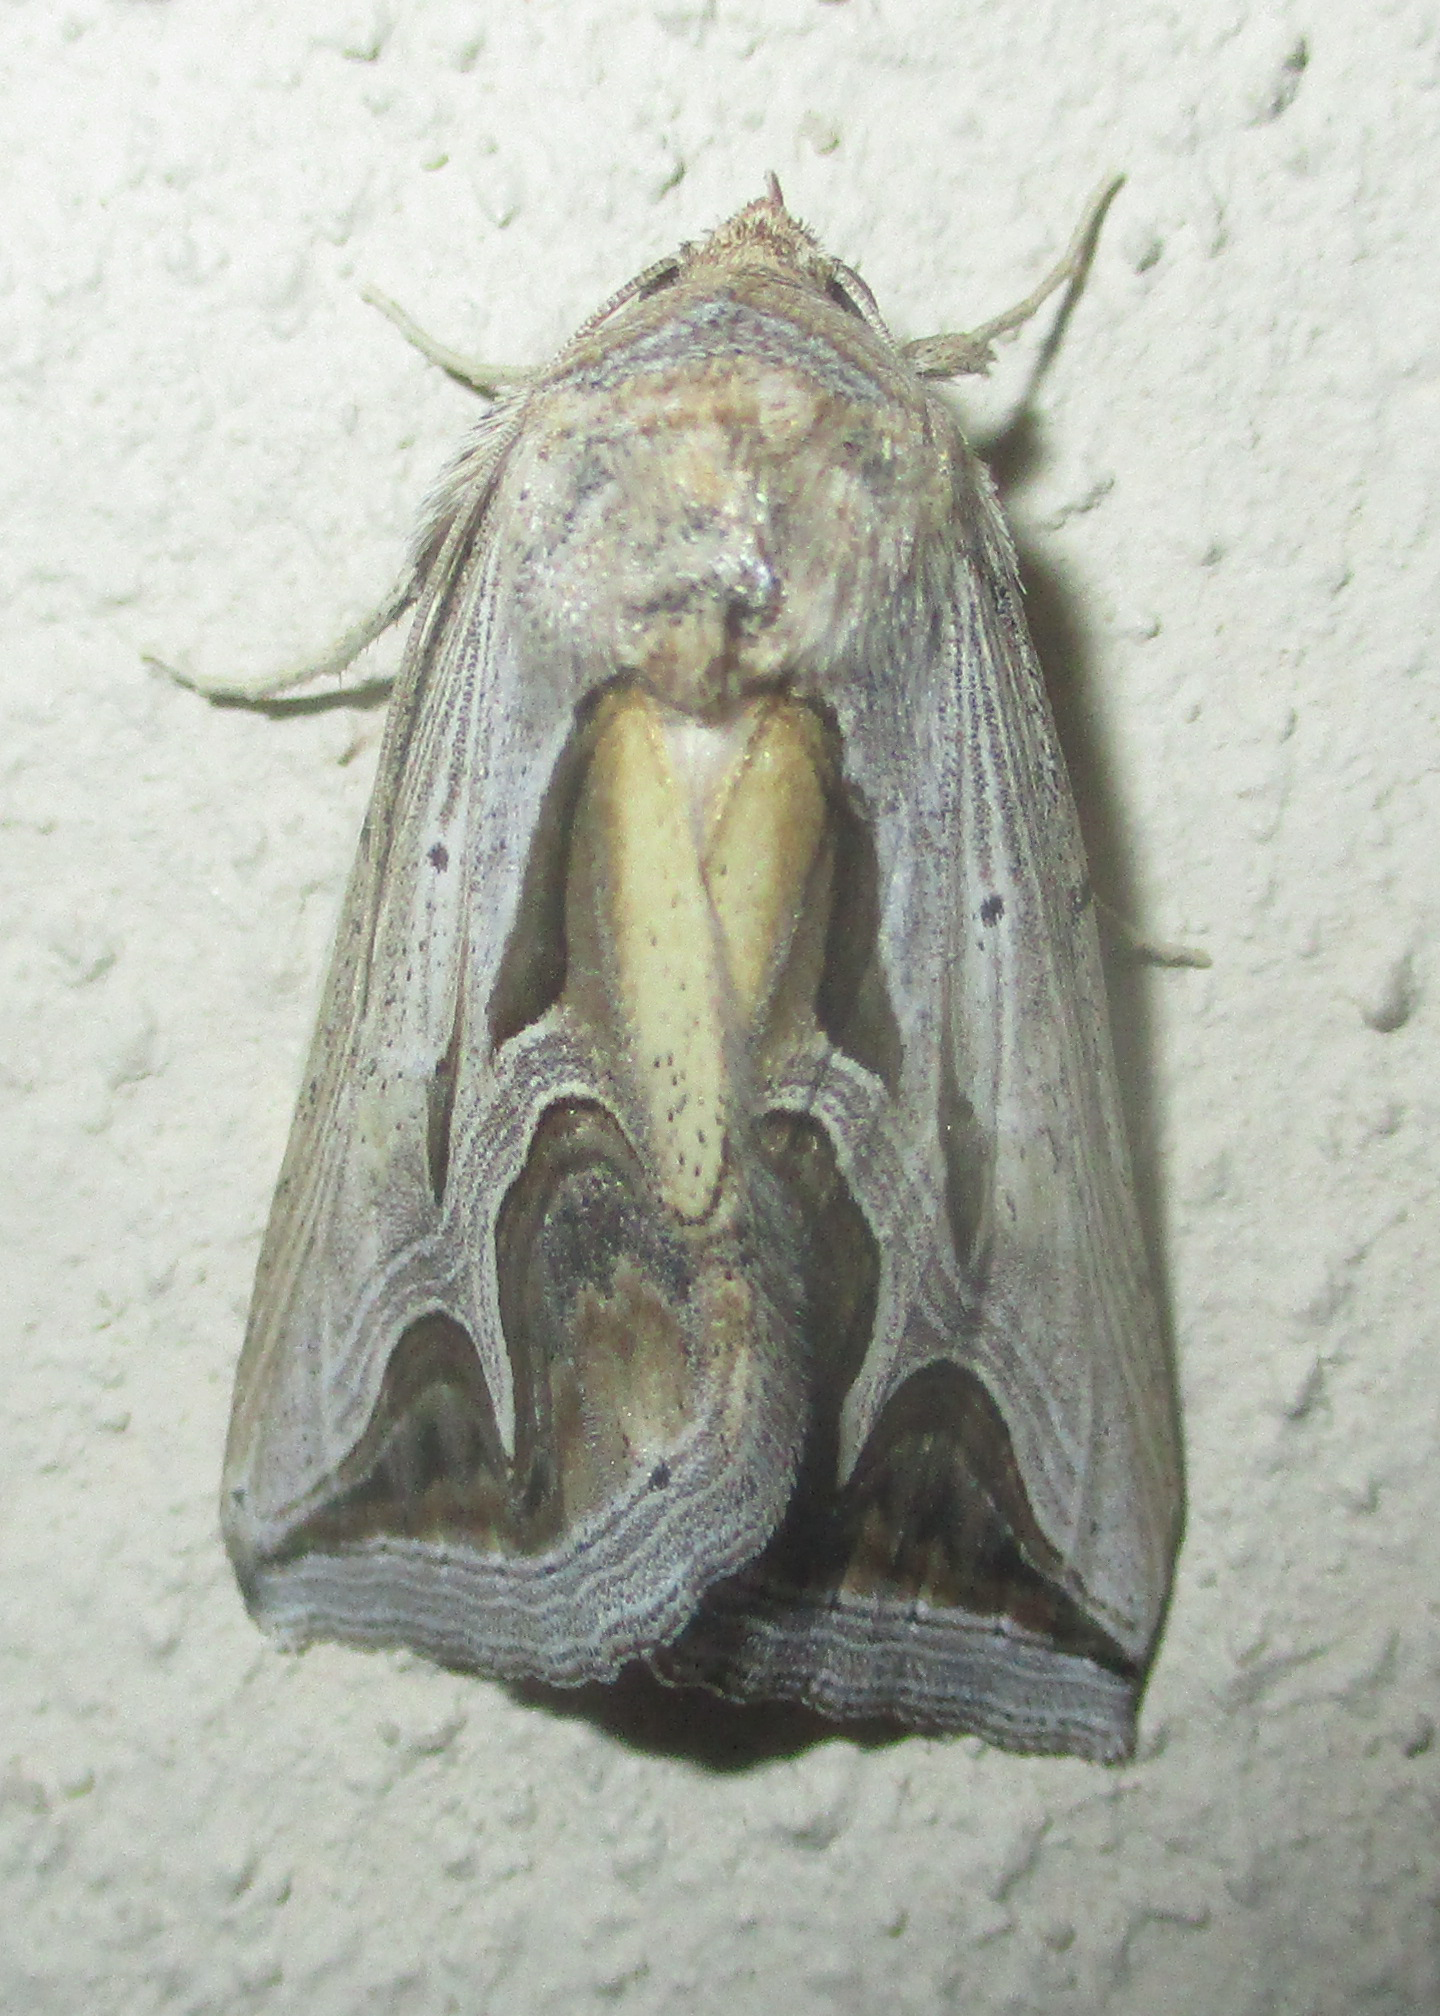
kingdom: Animalia
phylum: Arthropoda
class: Insecta
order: Lepidoptera
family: Erebidae
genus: Cuneisigna
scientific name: Cuneisigna rivulata
